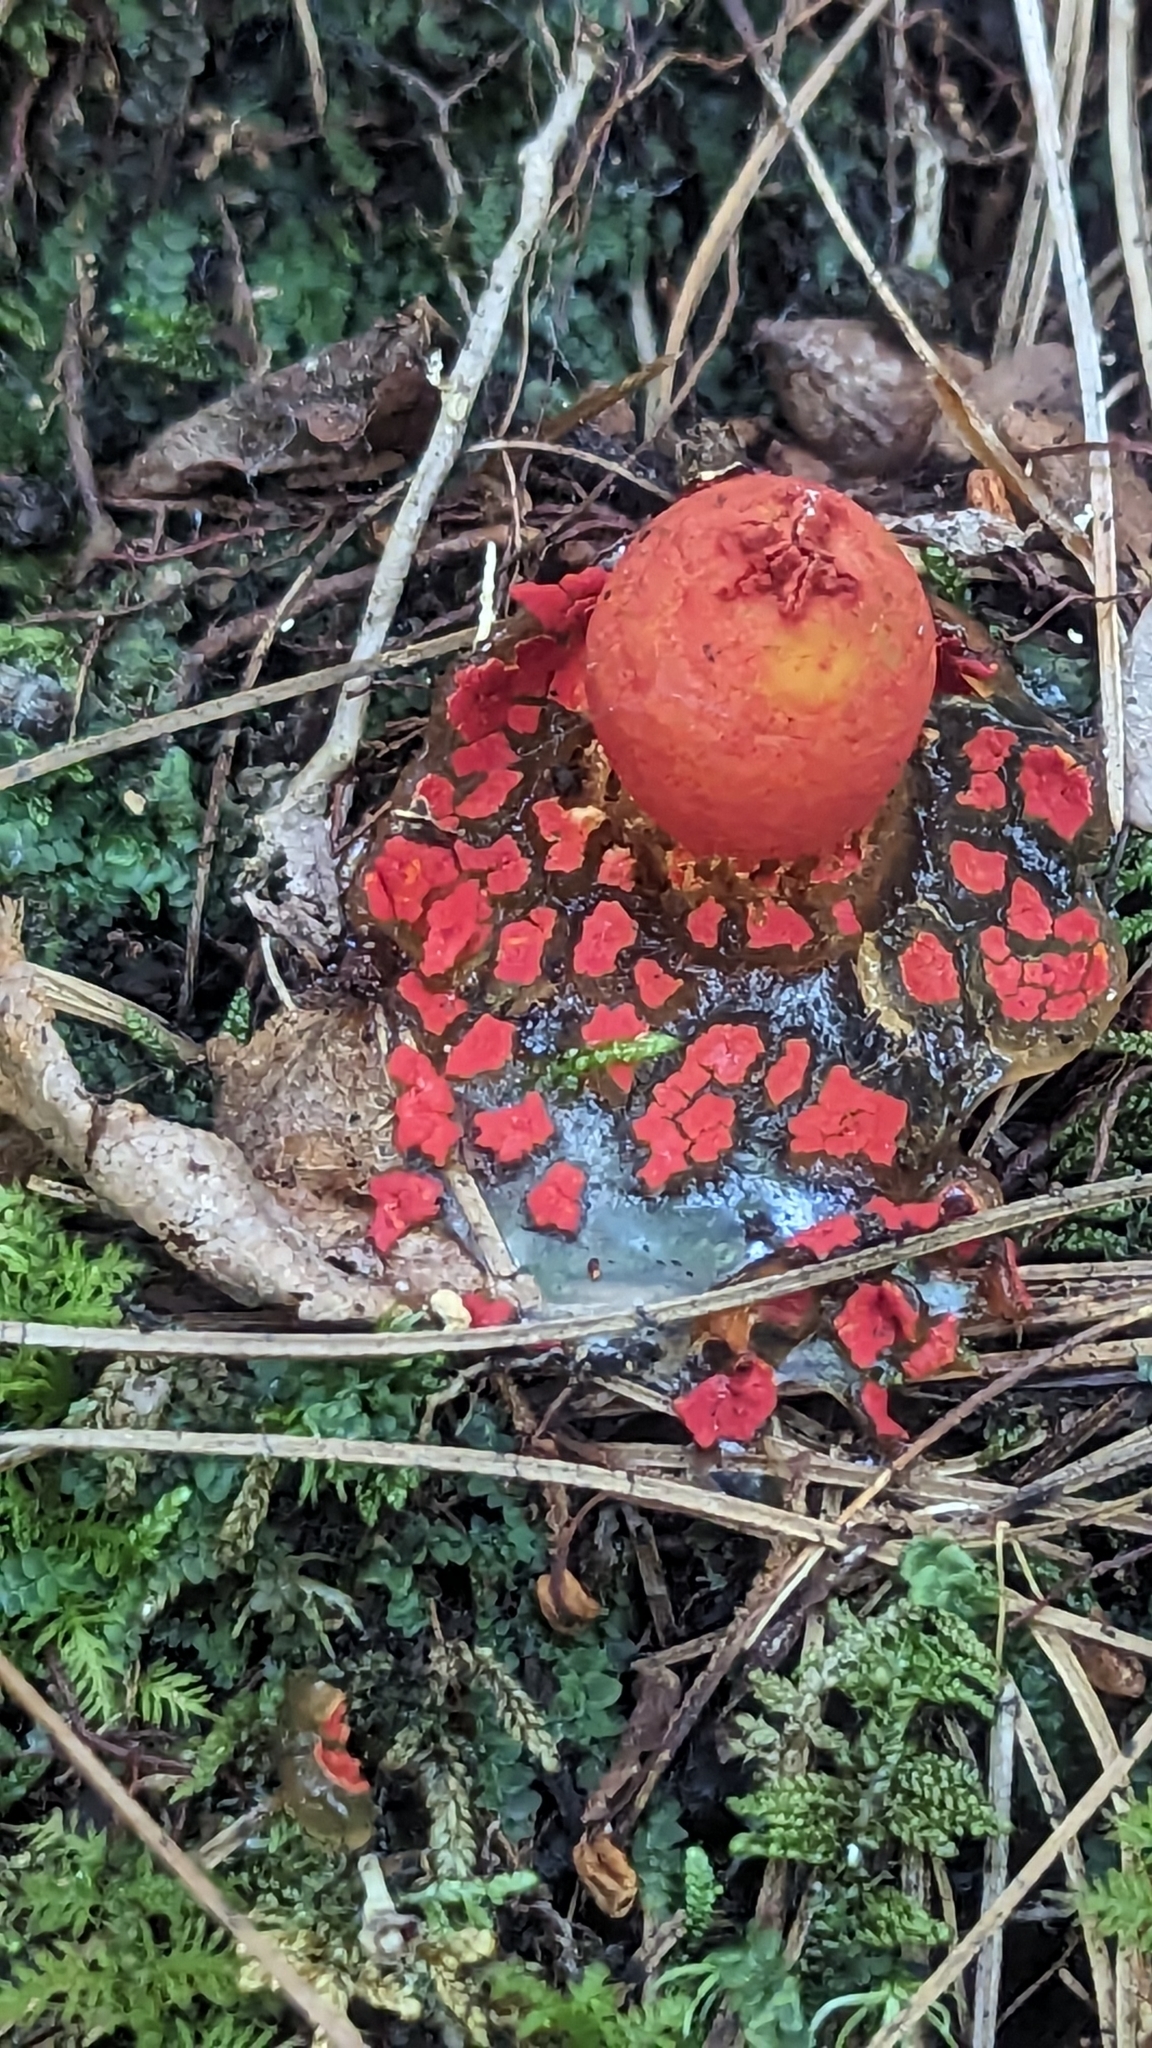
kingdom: Fungi
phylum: Basidiomycota
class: Agaricomycetes
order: Boletales
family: Calostomataceae
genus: Calostoma
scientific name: Calostoma cinnabarinum
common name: Stalked puffball-in-aspic
